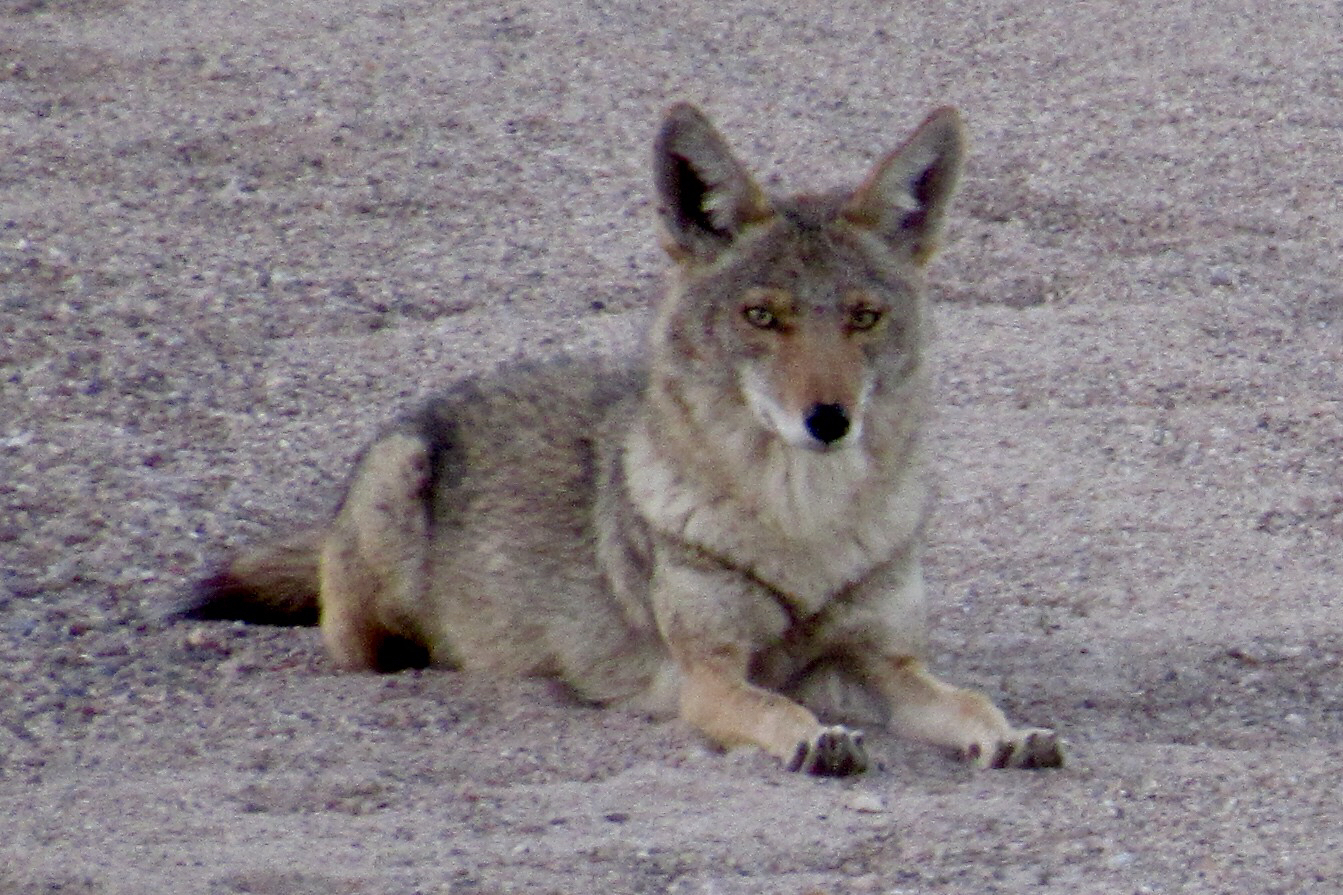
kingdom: Animalia
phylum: Chordata
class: Mammalia
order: Carnivora
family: Canidae
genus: Canis
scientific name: Canis latrans
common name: Coyote
